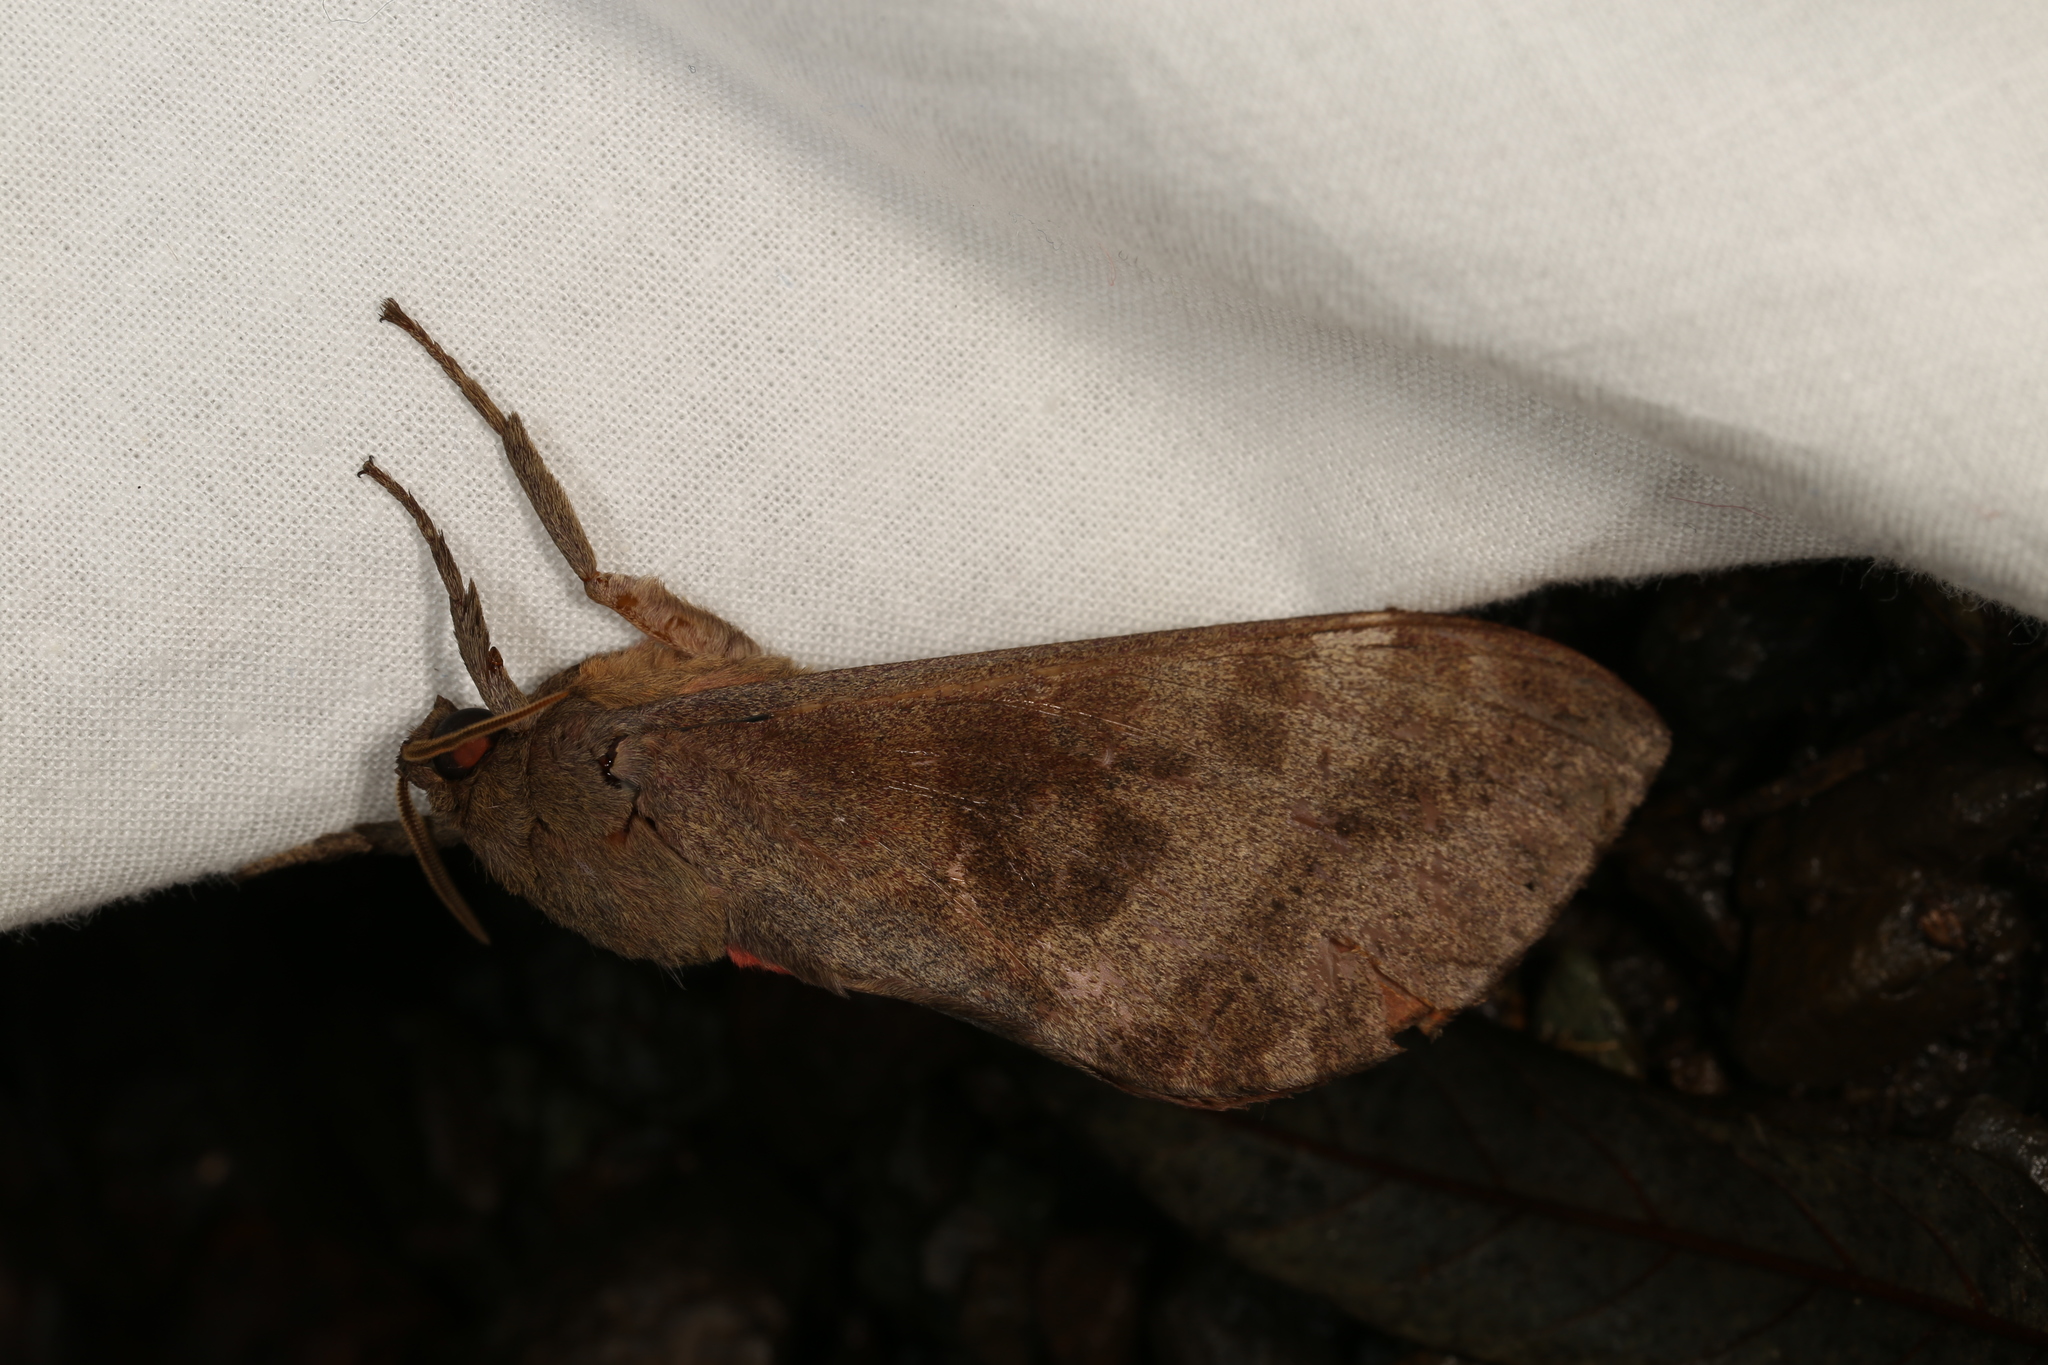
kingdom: Animalia
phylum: Arthropoda
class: Insecta
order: Lepidoptera
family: Hepialidae
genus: Oxycanus
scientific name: Oxycanus beltista
